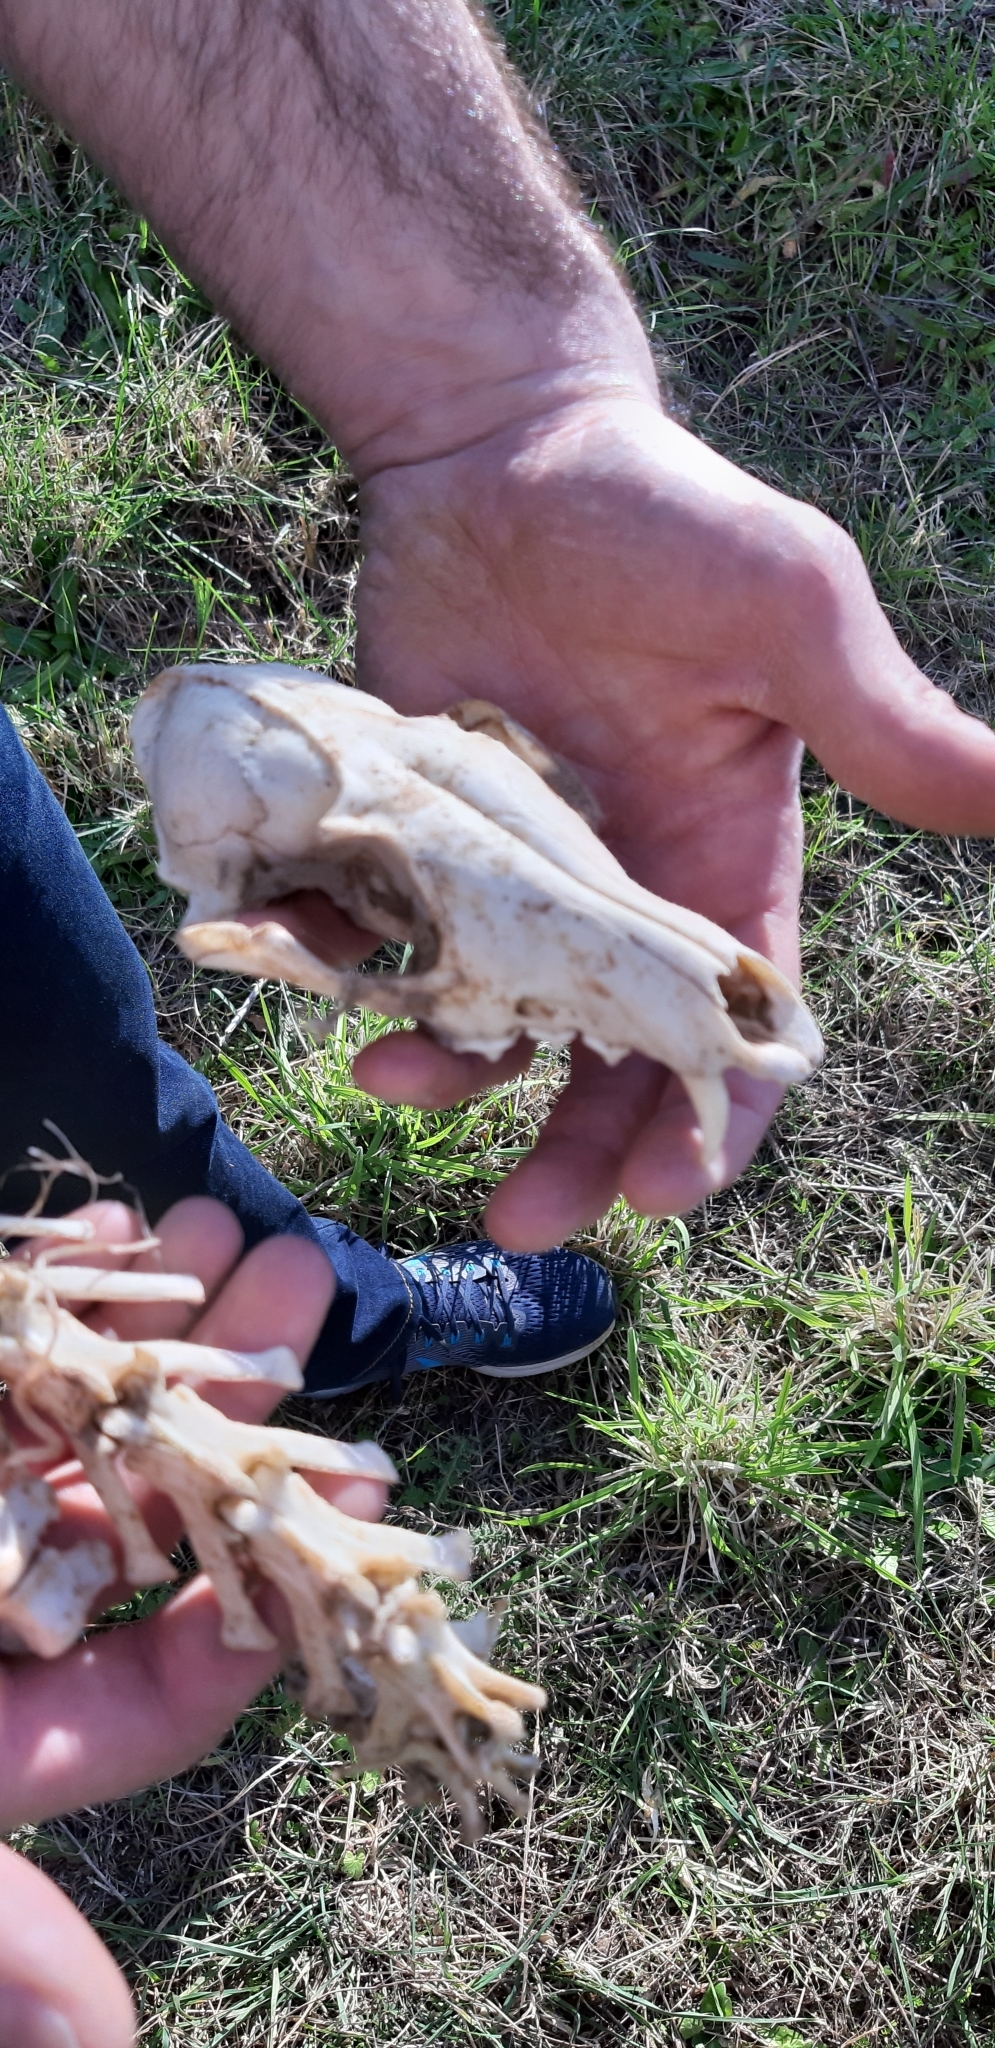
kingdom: Animalia
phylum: Chordata
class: Mammalia
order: Carnivora
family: Canidae
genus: Vulpes
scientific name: Vulpes vulpes
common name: Red fox
